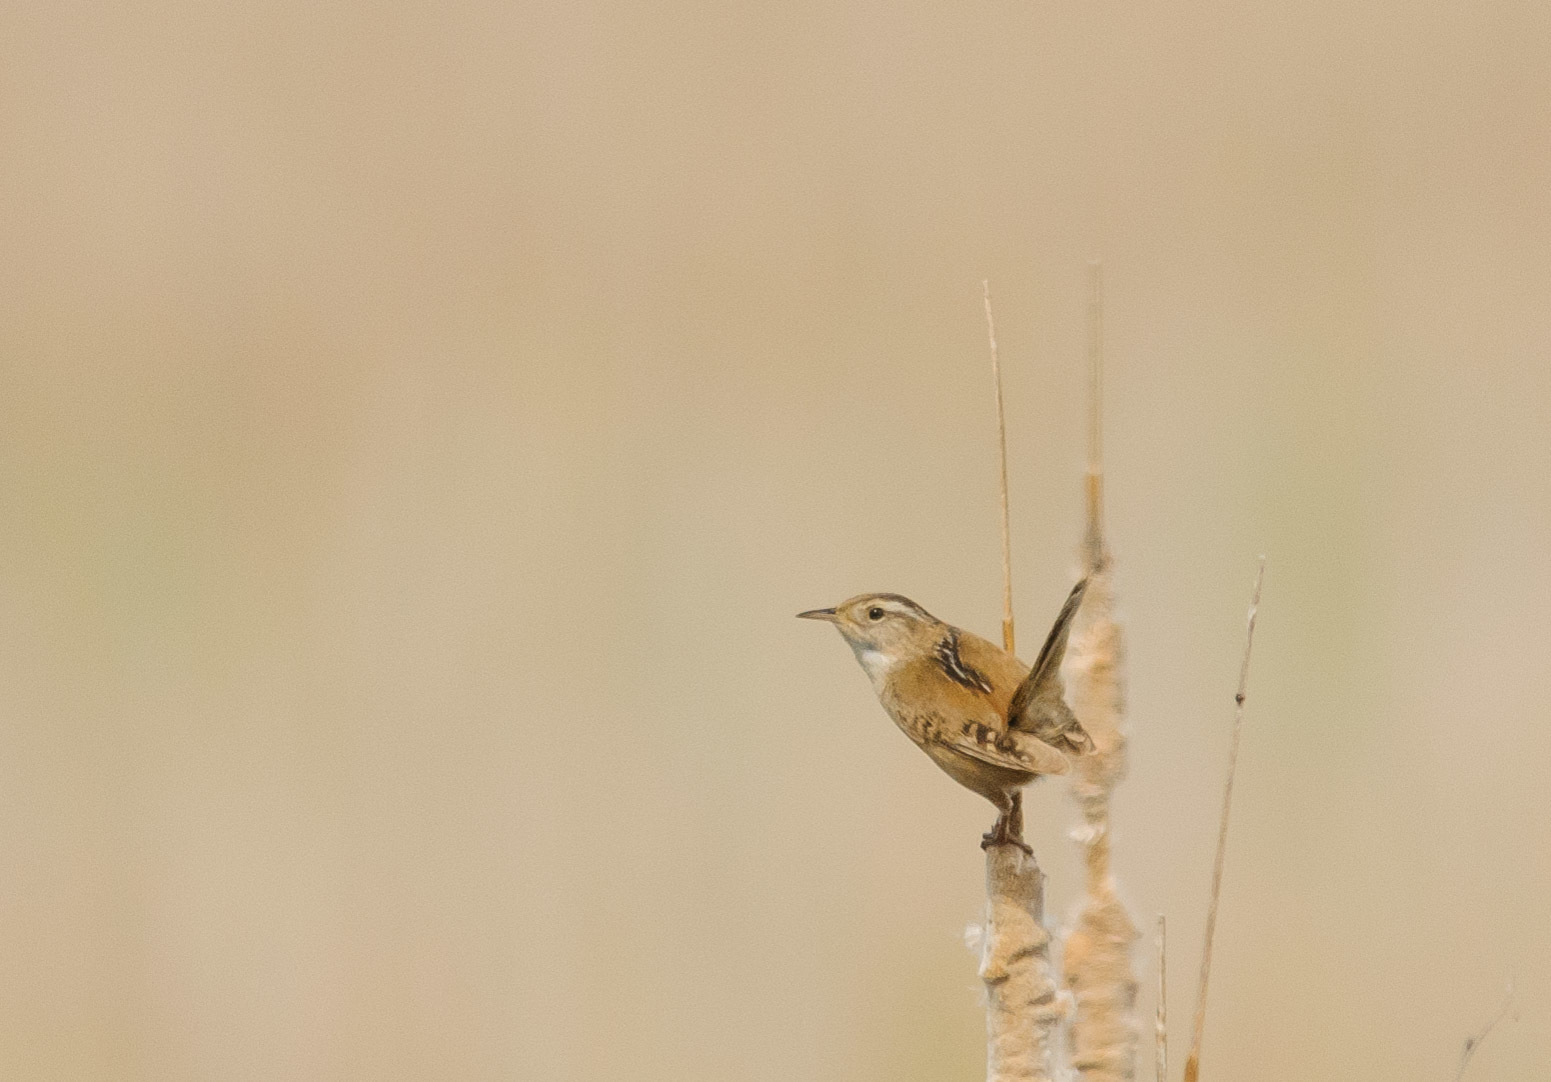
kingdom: Animalia
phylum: Chordata
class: Aves
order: Passeriformes
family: Troglodytidae
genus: Cistothorus
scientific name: Cistothorus palustris
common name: Marsh wren
